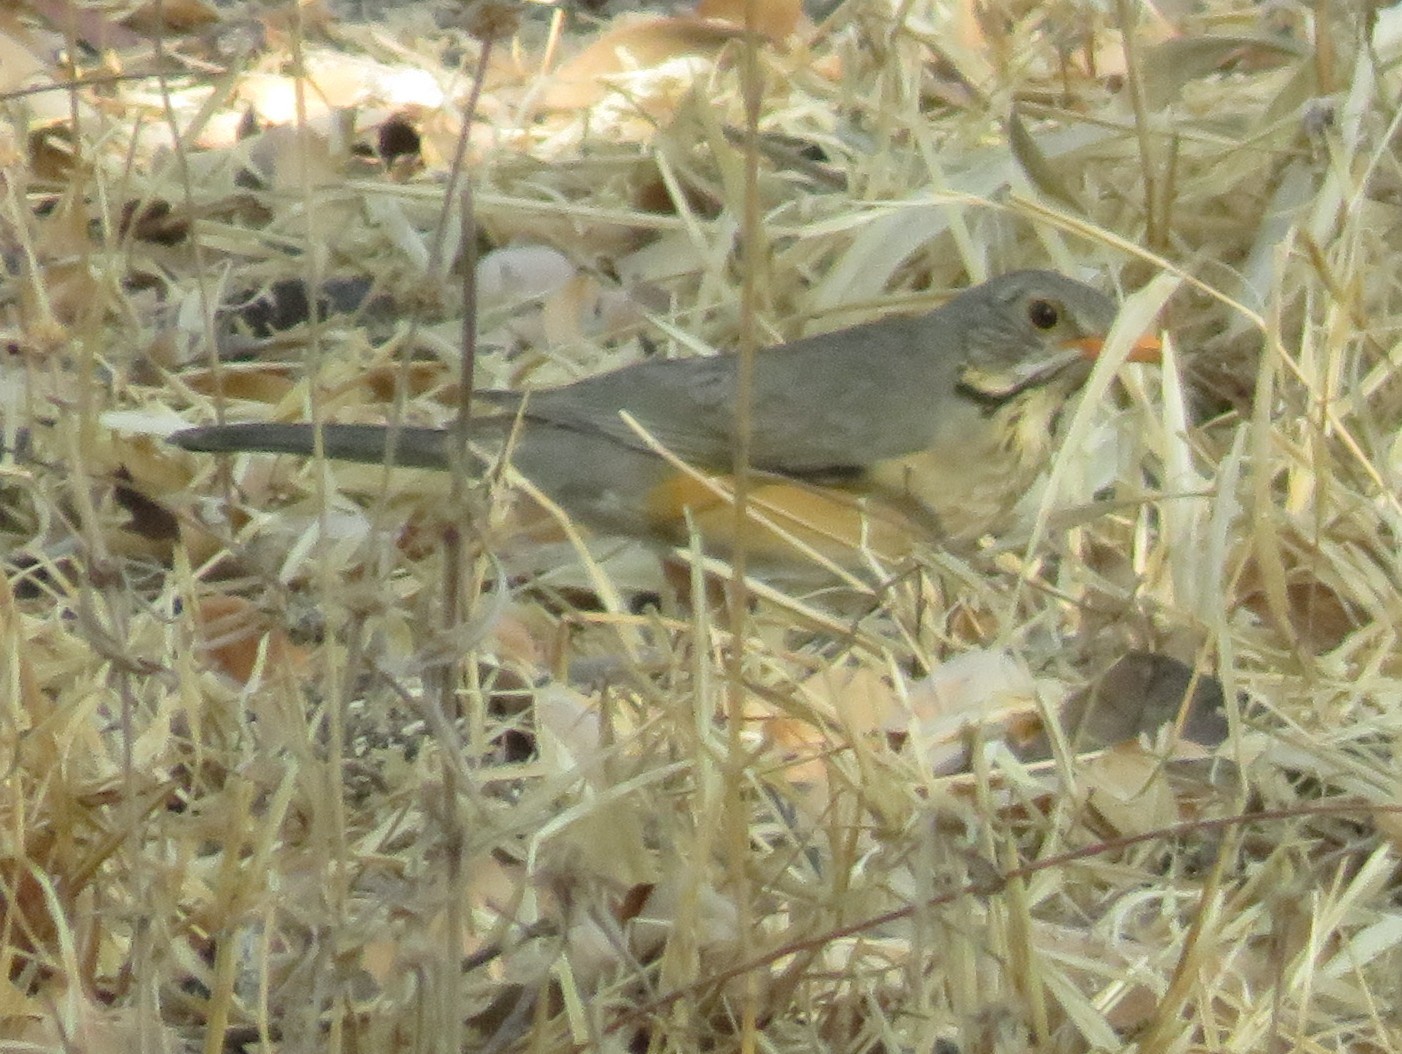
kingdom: Animalia
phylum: Chordata
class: Aves
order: Passeriformes
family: Turdidae
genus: Turdus
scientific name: Turdus libonyana
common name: Kurrichane thrush
